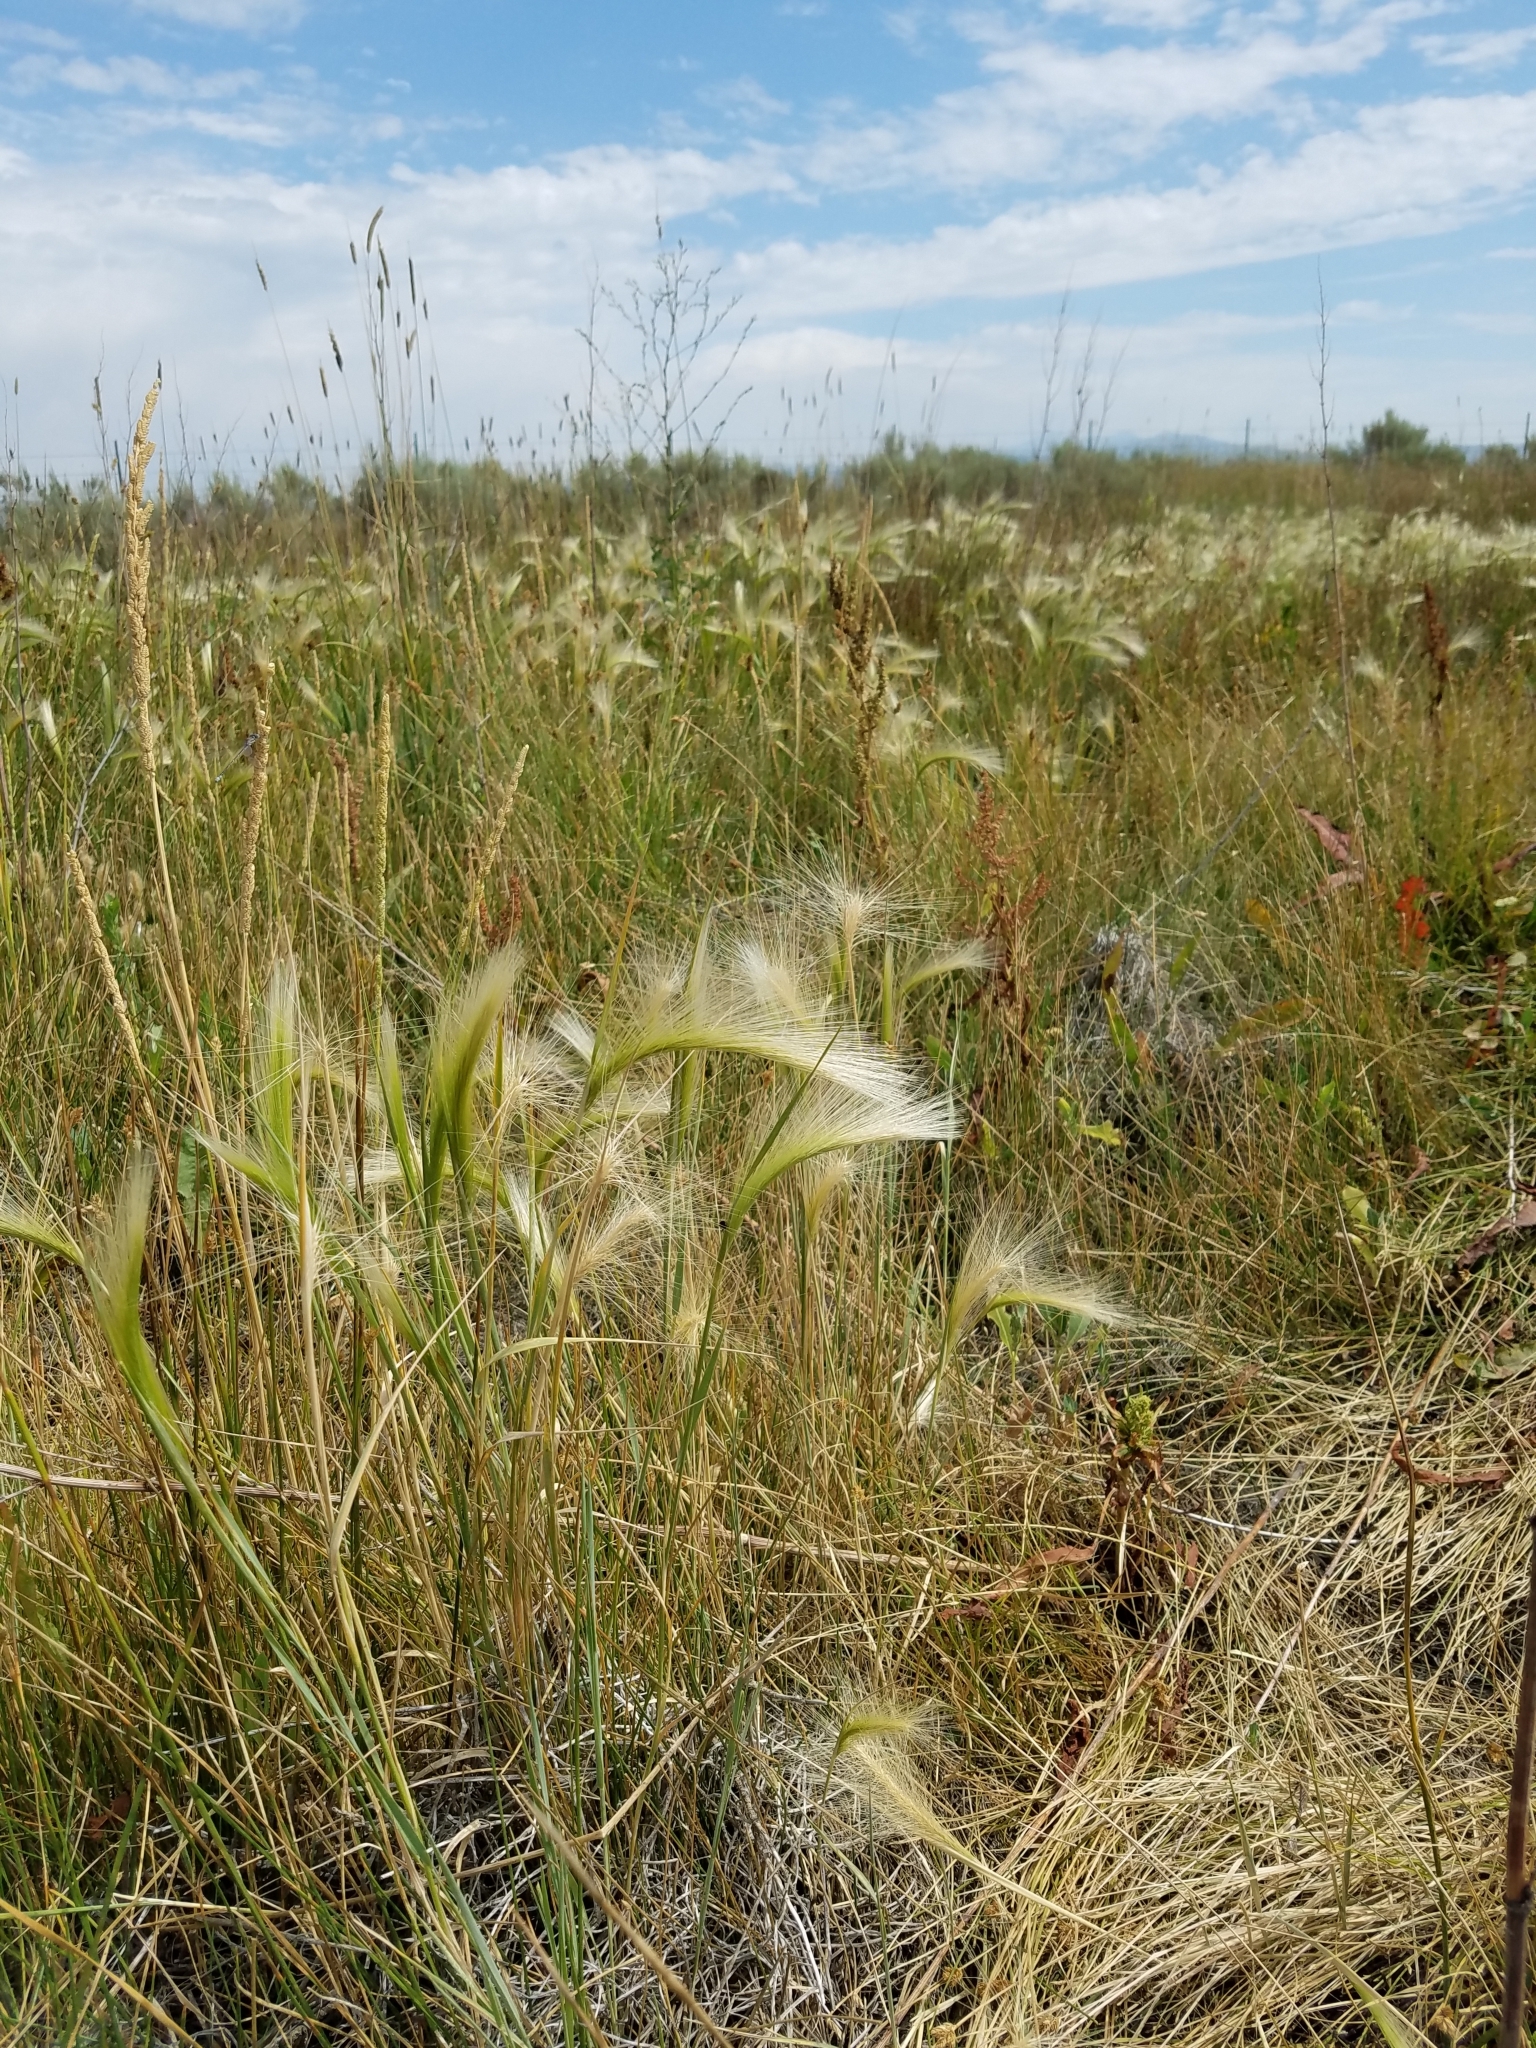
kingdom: Plantae
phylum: Tracheophyta
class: Liliopsida
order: Poales
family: Poaceae
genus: Hordeum
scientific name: Hordeum jubatum
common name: Foxtail barley
